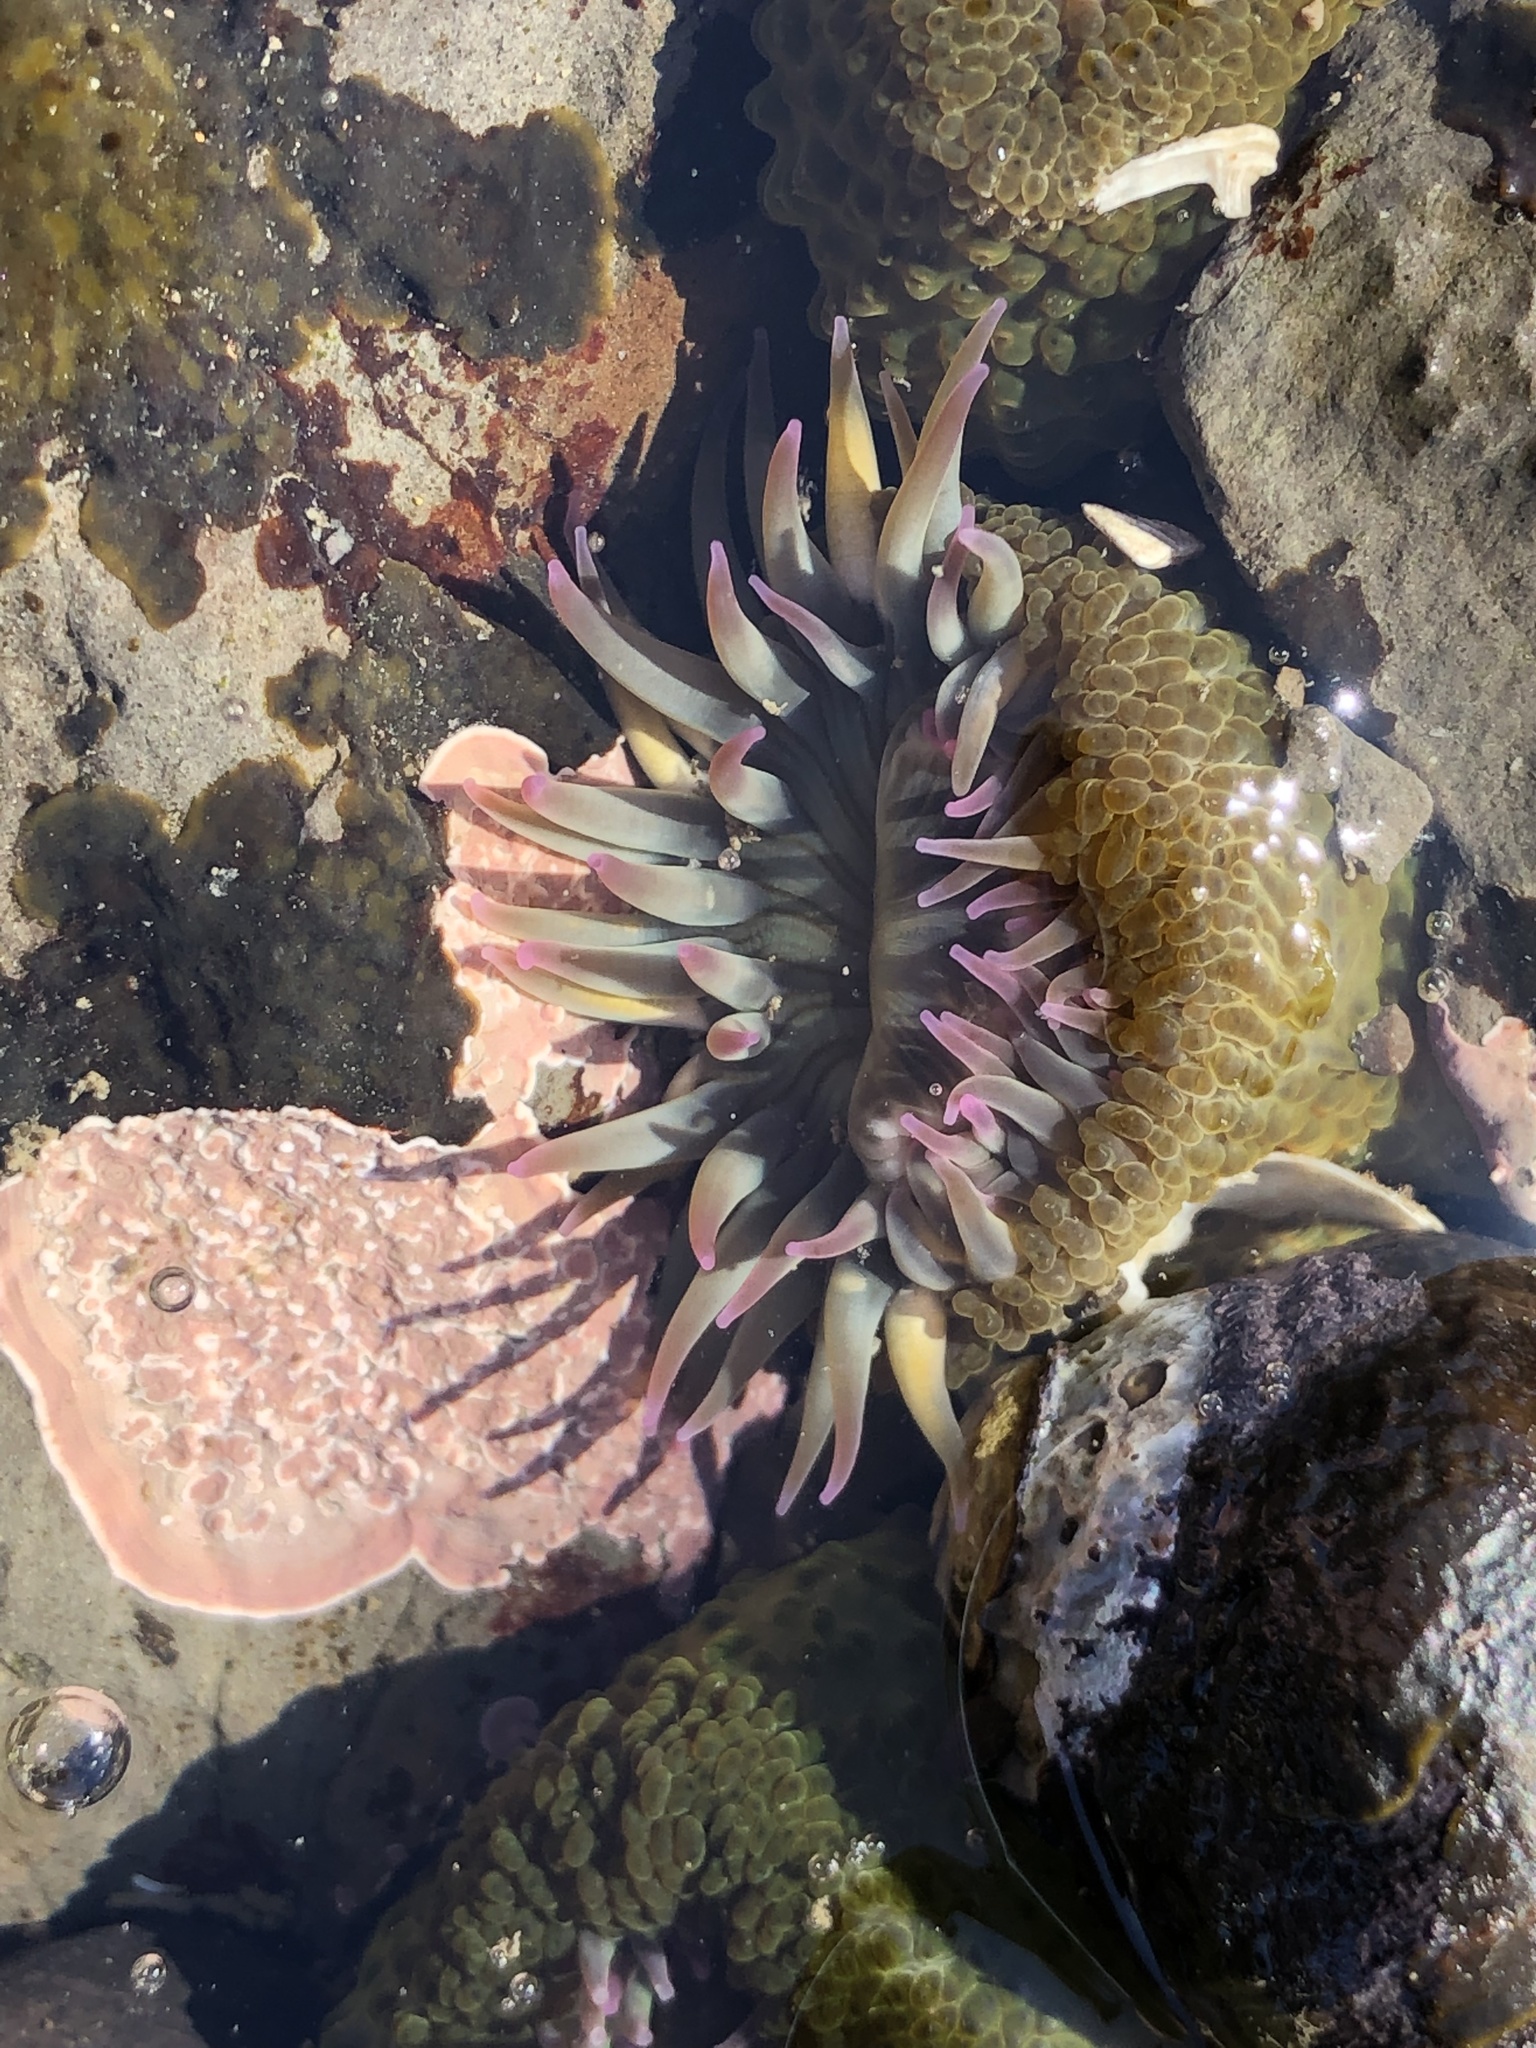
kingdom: Animalia
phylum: Cnidaria
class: Anthozoa
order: Actiniaria
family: Actiniidae
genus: Anthopleura
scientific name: Anthopleura elegantissima
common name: Clonal anemone
